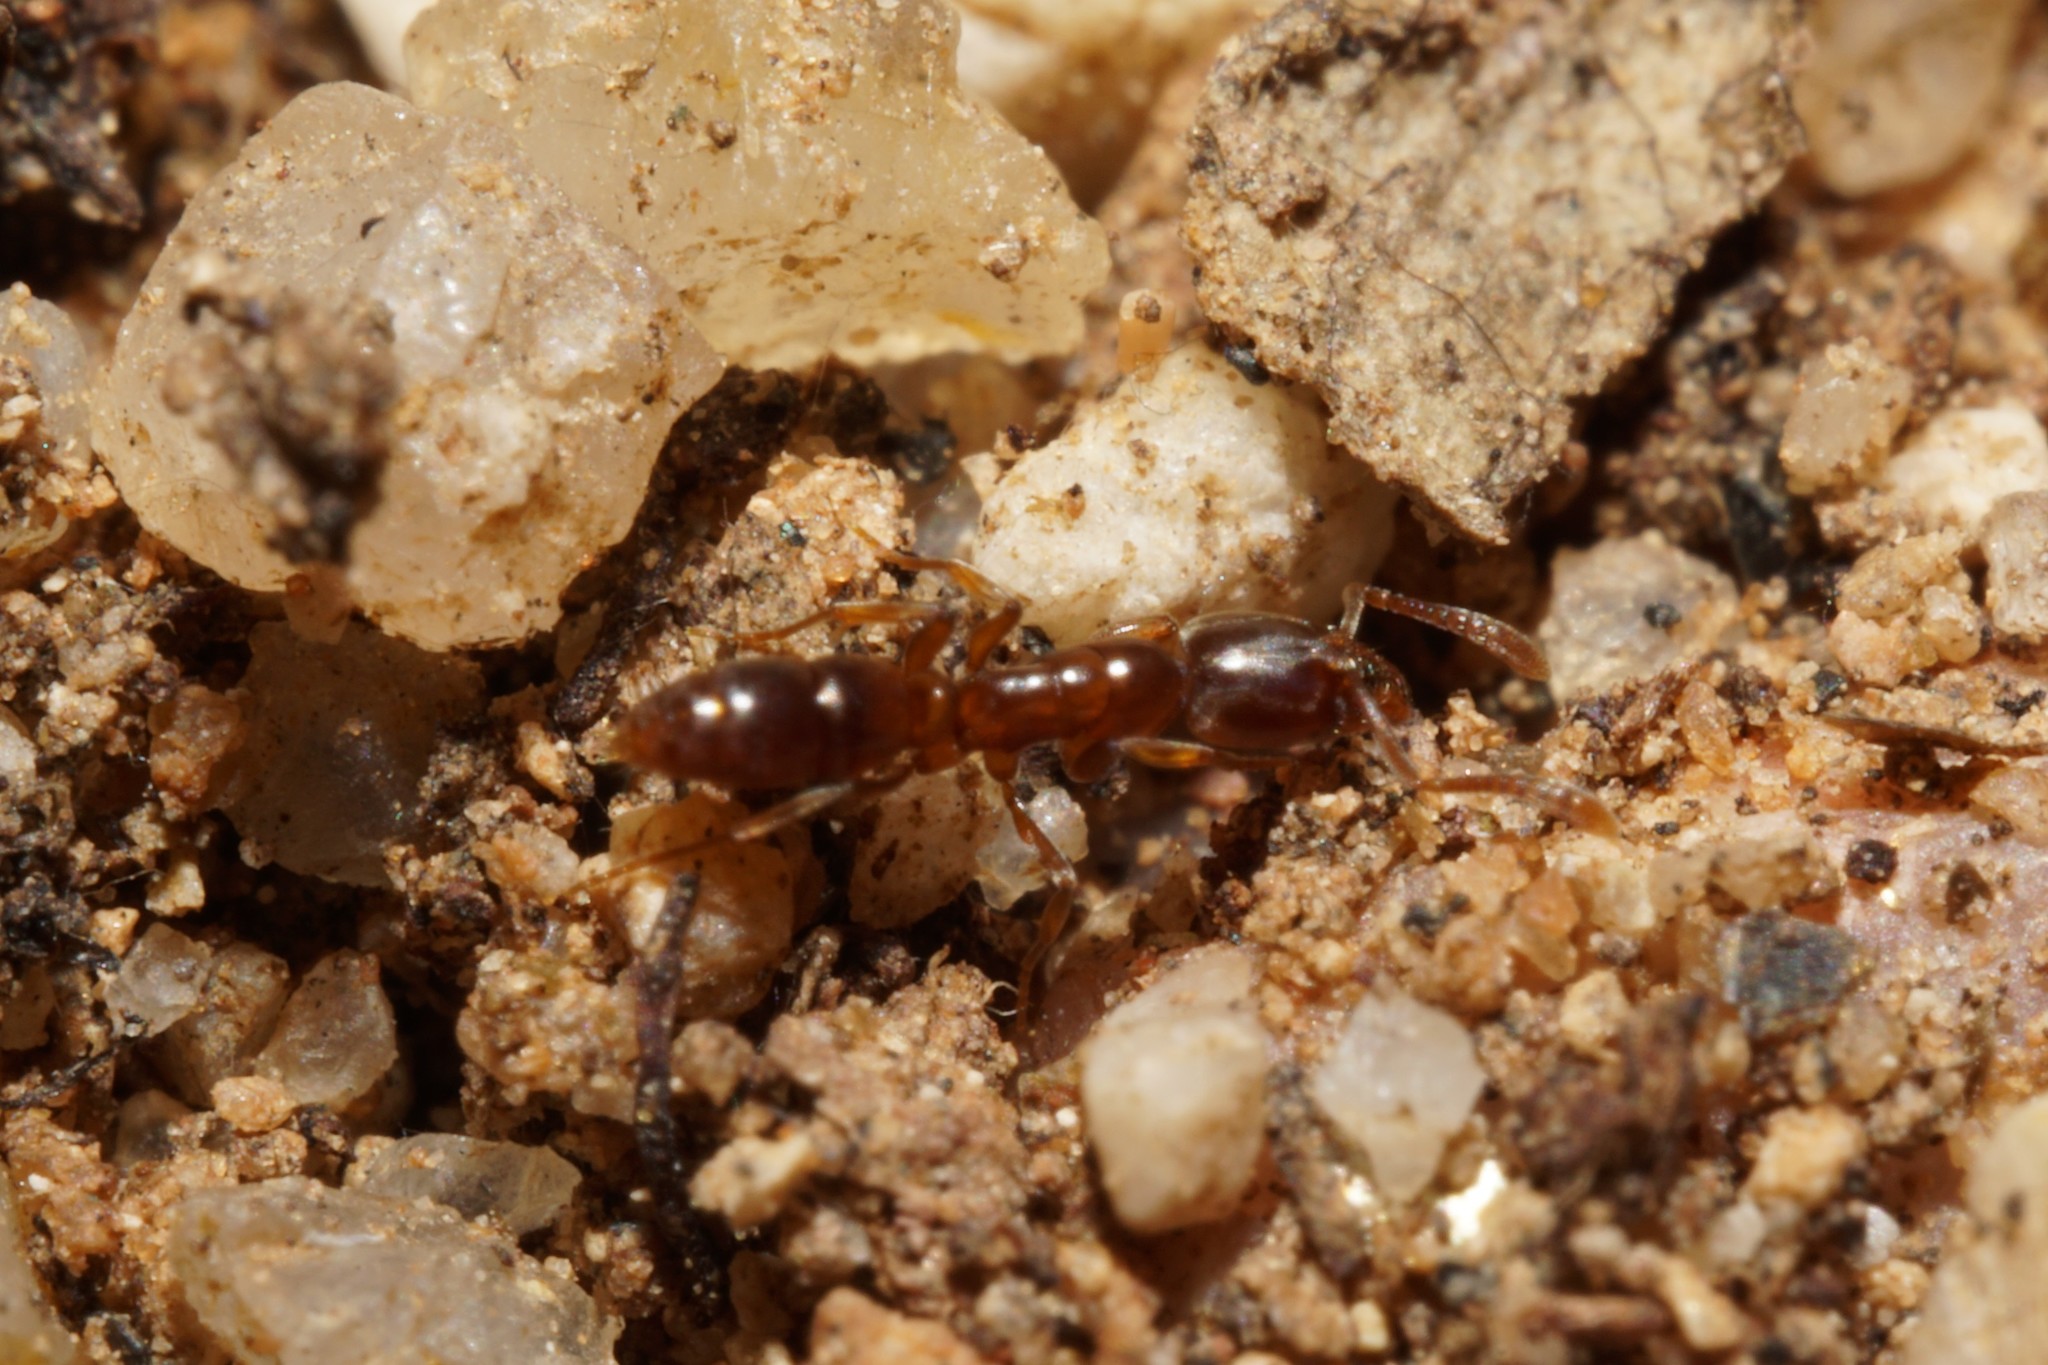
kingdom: Animalia
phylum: Arthropoda
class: Insecta
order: Hymenoptera
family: Formicidae
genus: Hypoponera
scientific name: Hypoponera opacior
